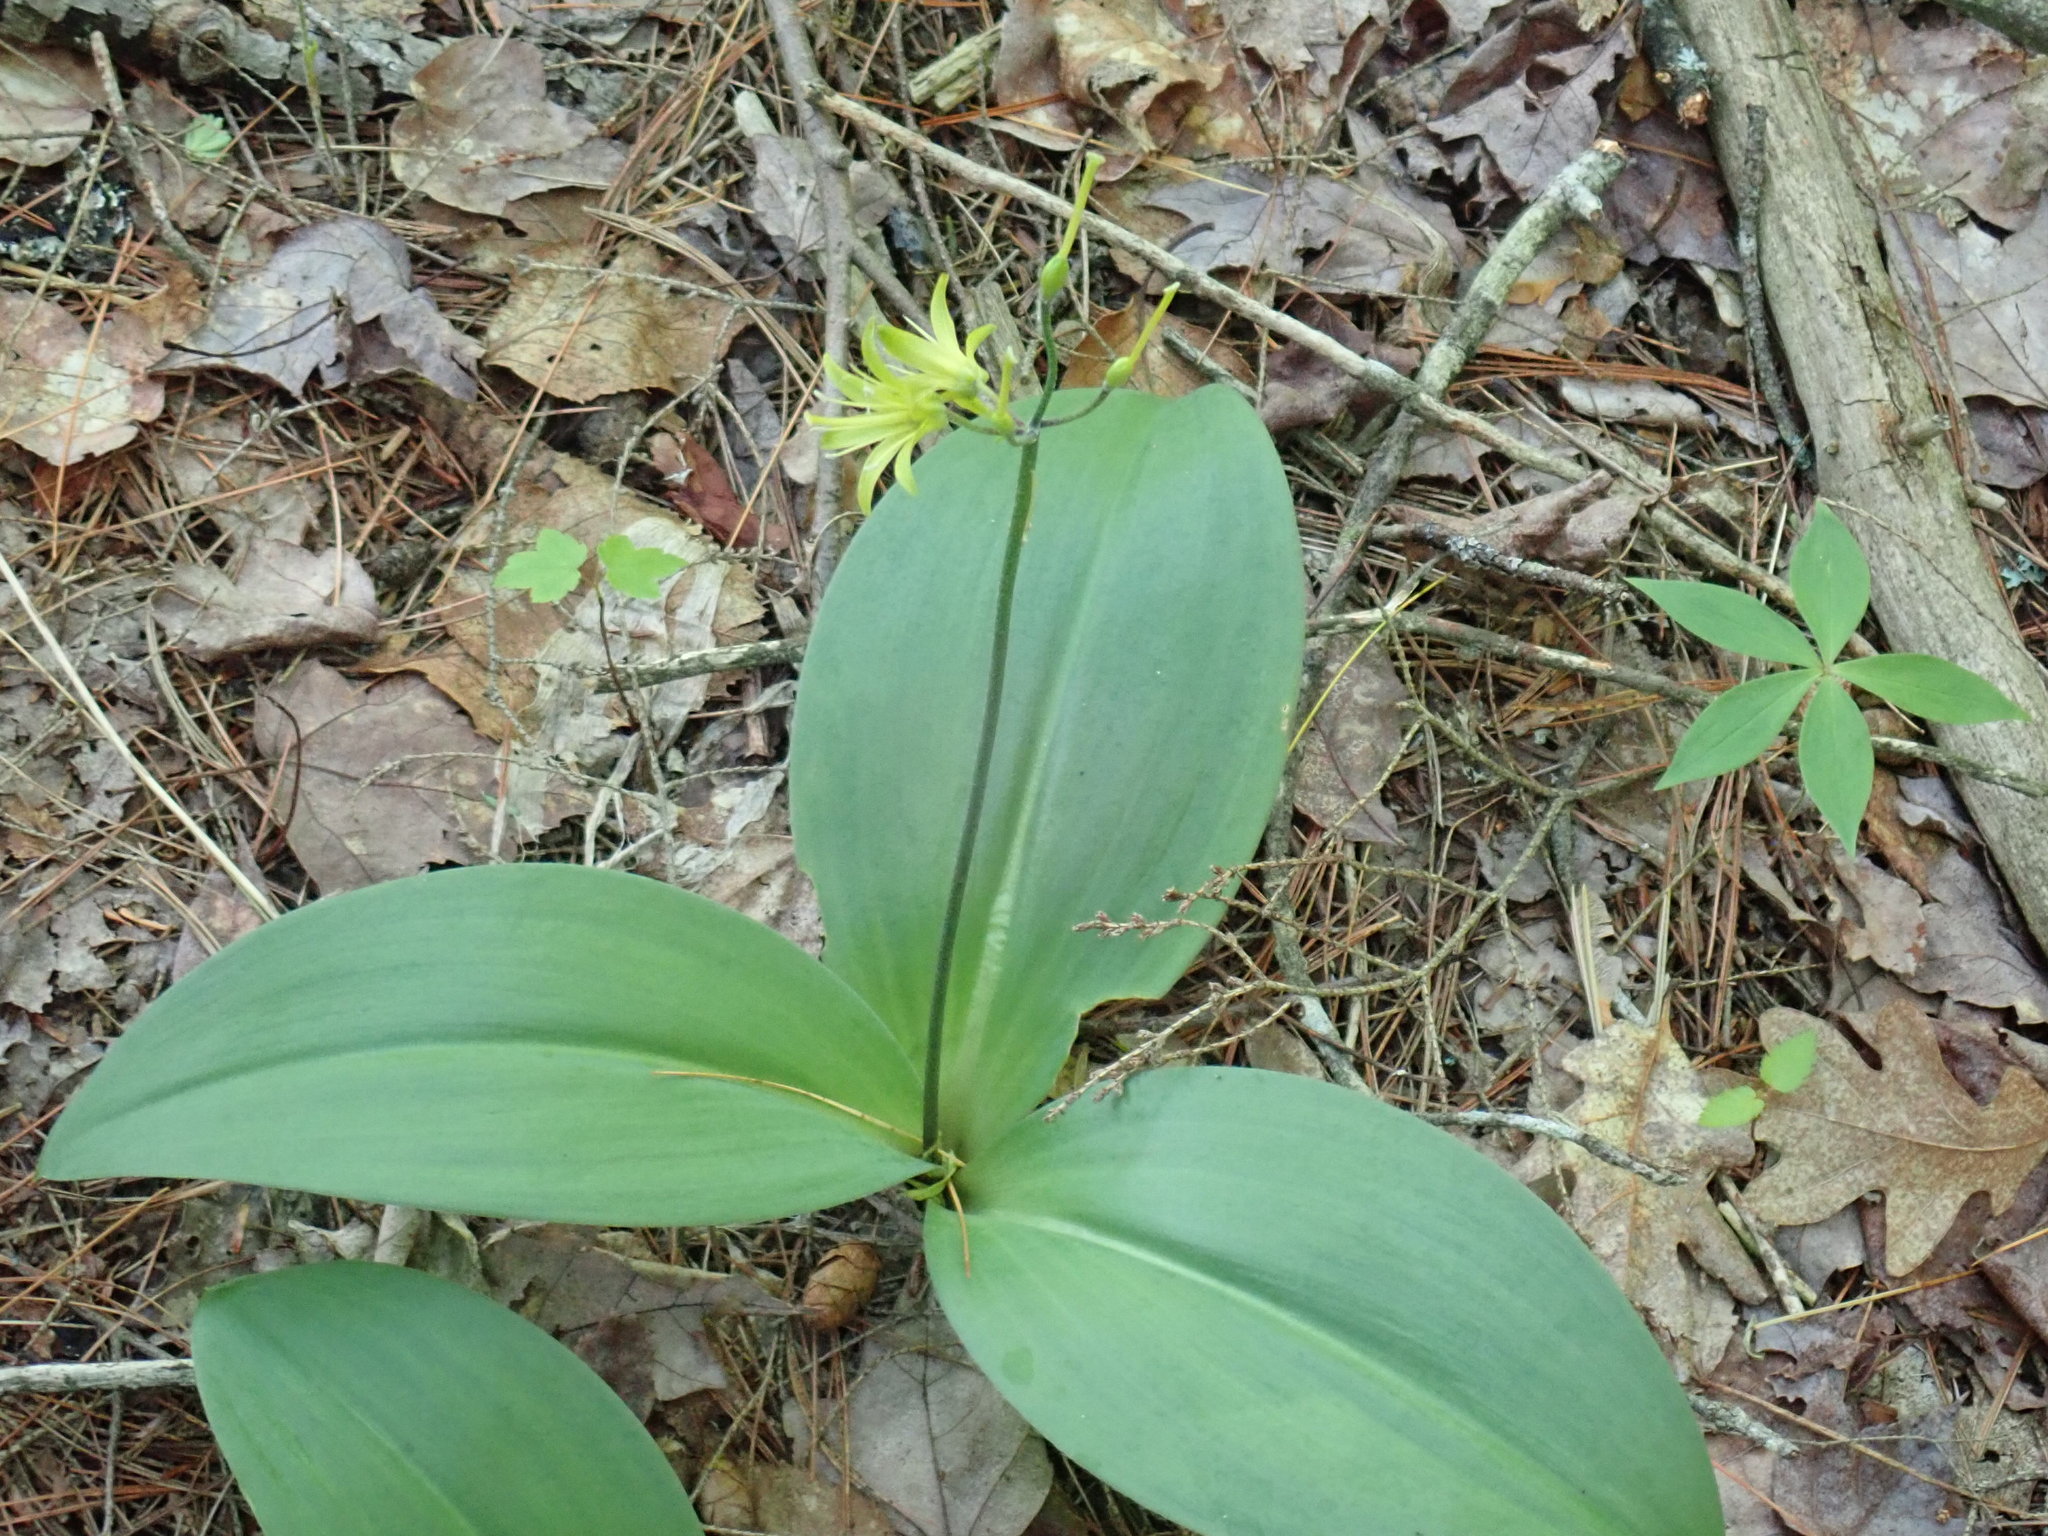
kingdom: Plantae
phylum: Tracheophyta
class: Liliopsida
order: Liliales
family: Liliaceae
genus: Clintonia
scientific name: Clintonia borealis
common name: Yellow clintonia
